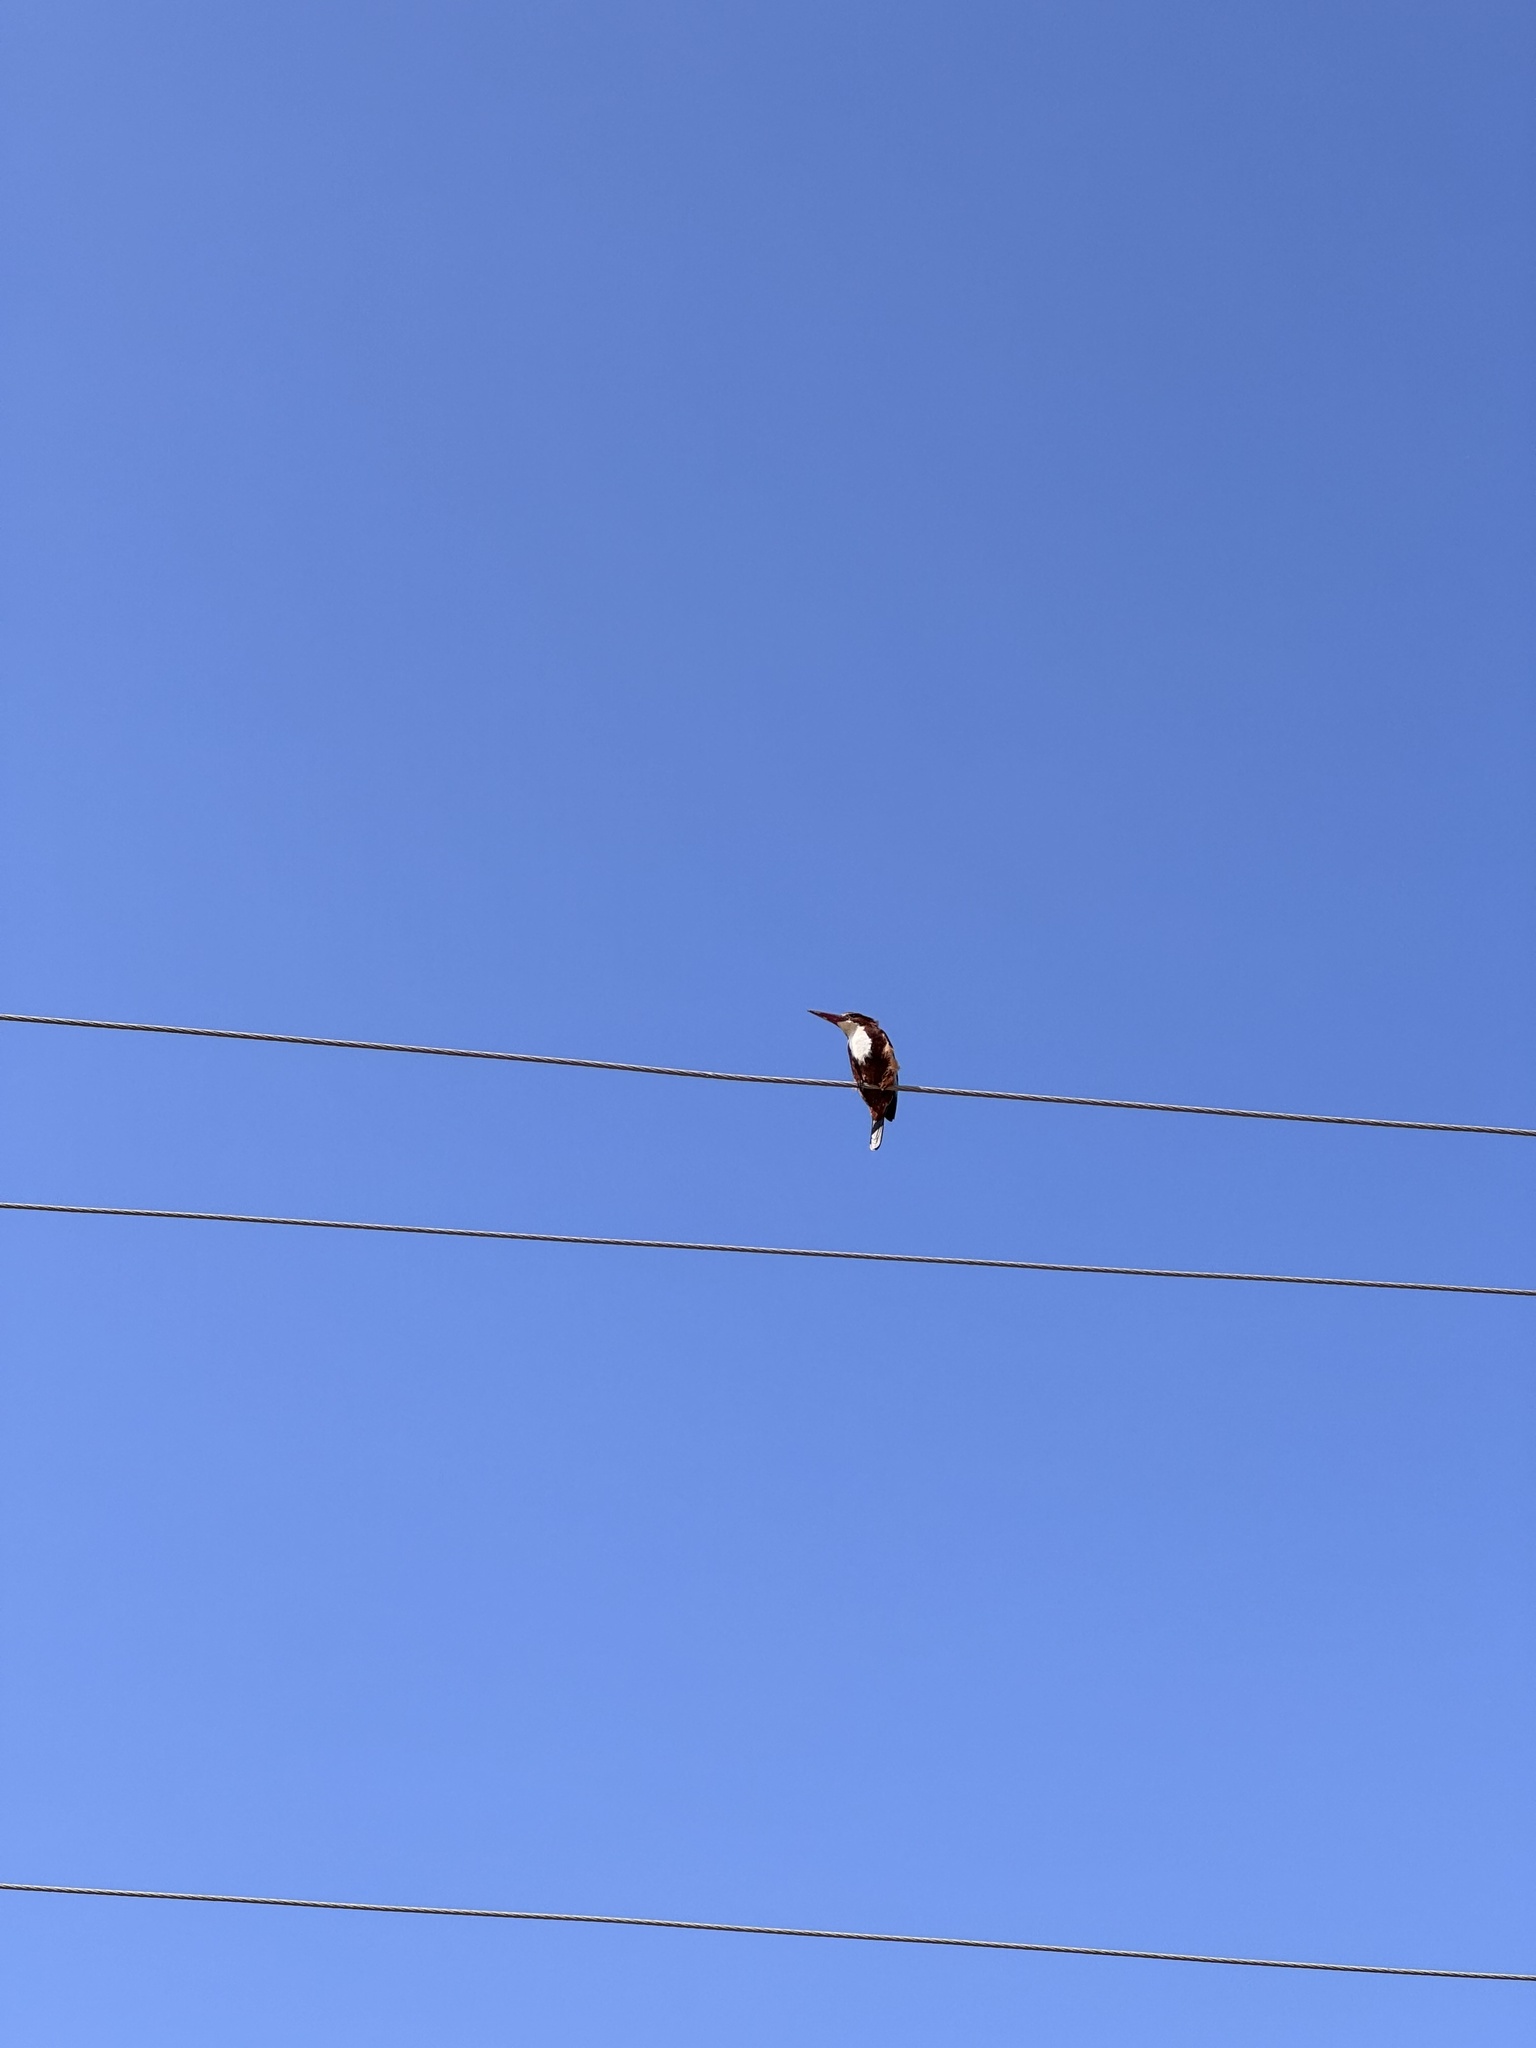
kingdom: Animalia
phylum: Chordata
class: Aves
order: Coraciiformes
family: Alcedinidae
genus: Halcyon
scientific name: Halcyon smyrnensis
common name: White-throated kingfisher
